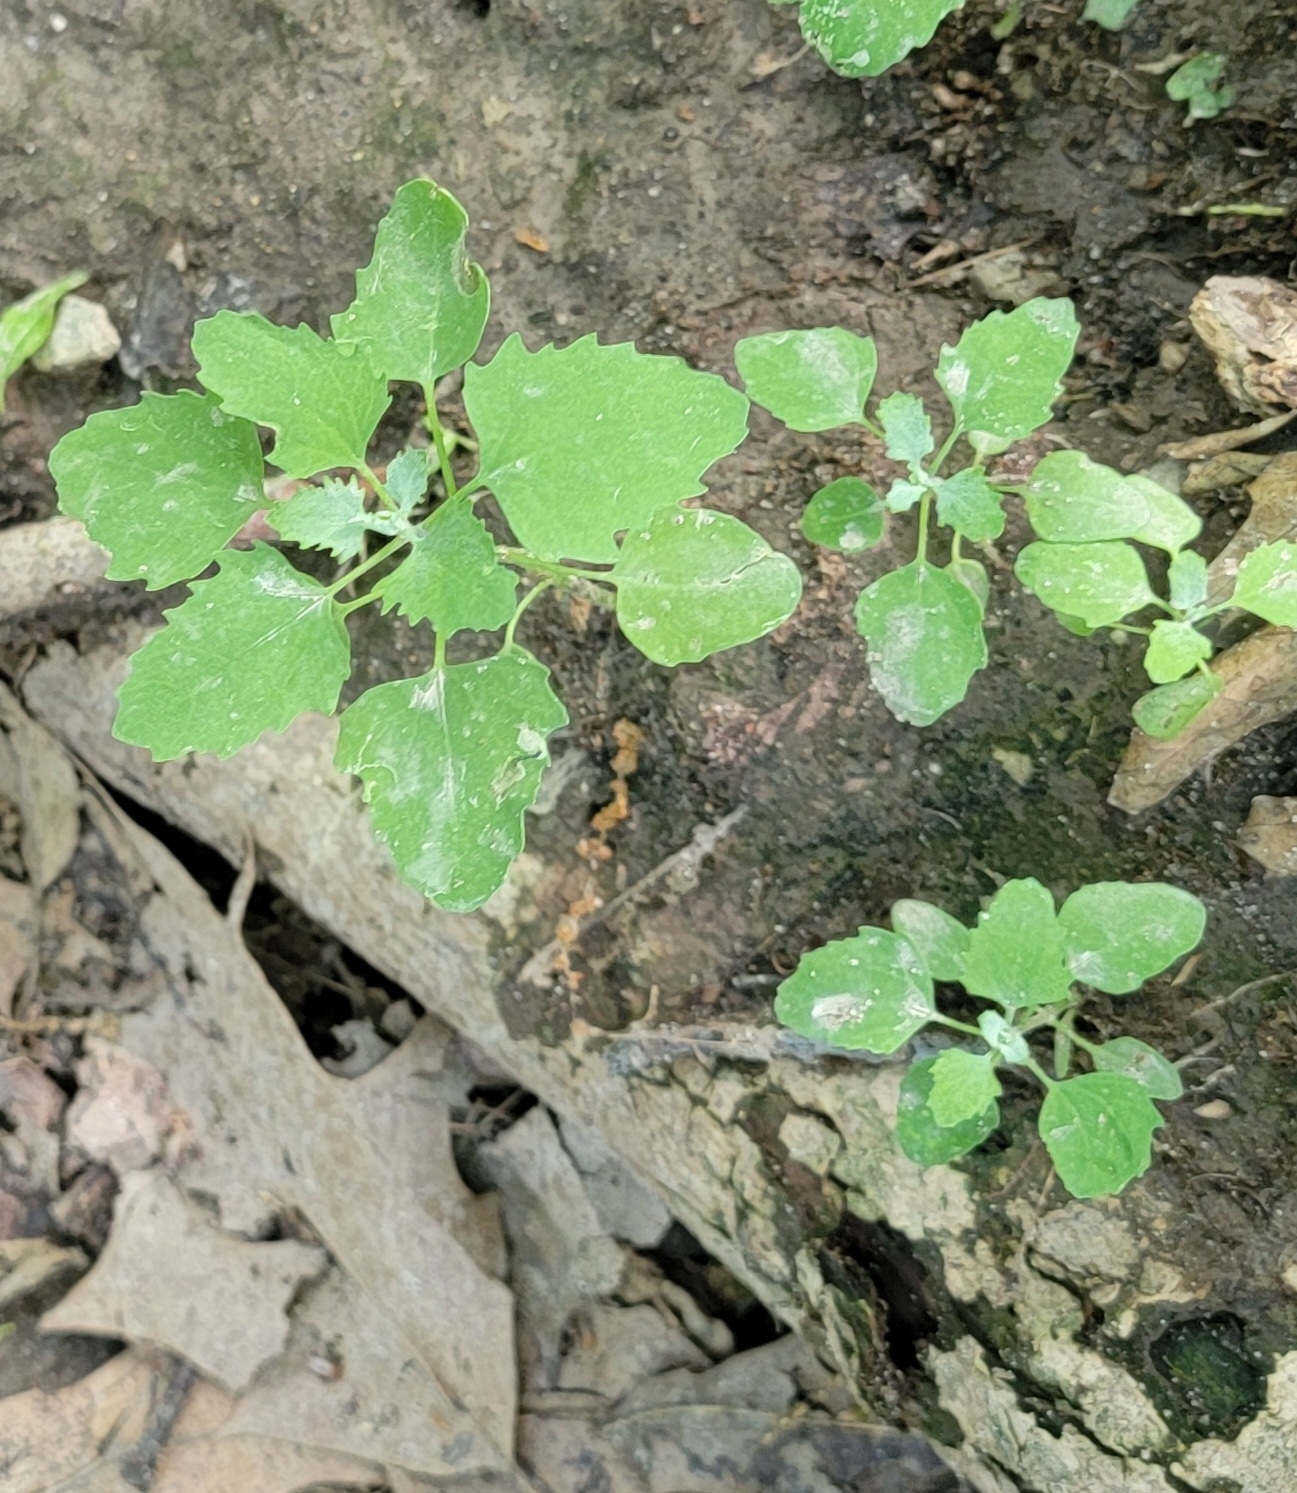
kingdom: Plantae
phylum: Tracheophyta
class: Magnoliopsida
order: Caryophyllales
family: Amaranthaceae
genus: Chenopodium
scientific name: Chenopodium album
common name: Fat-hen
